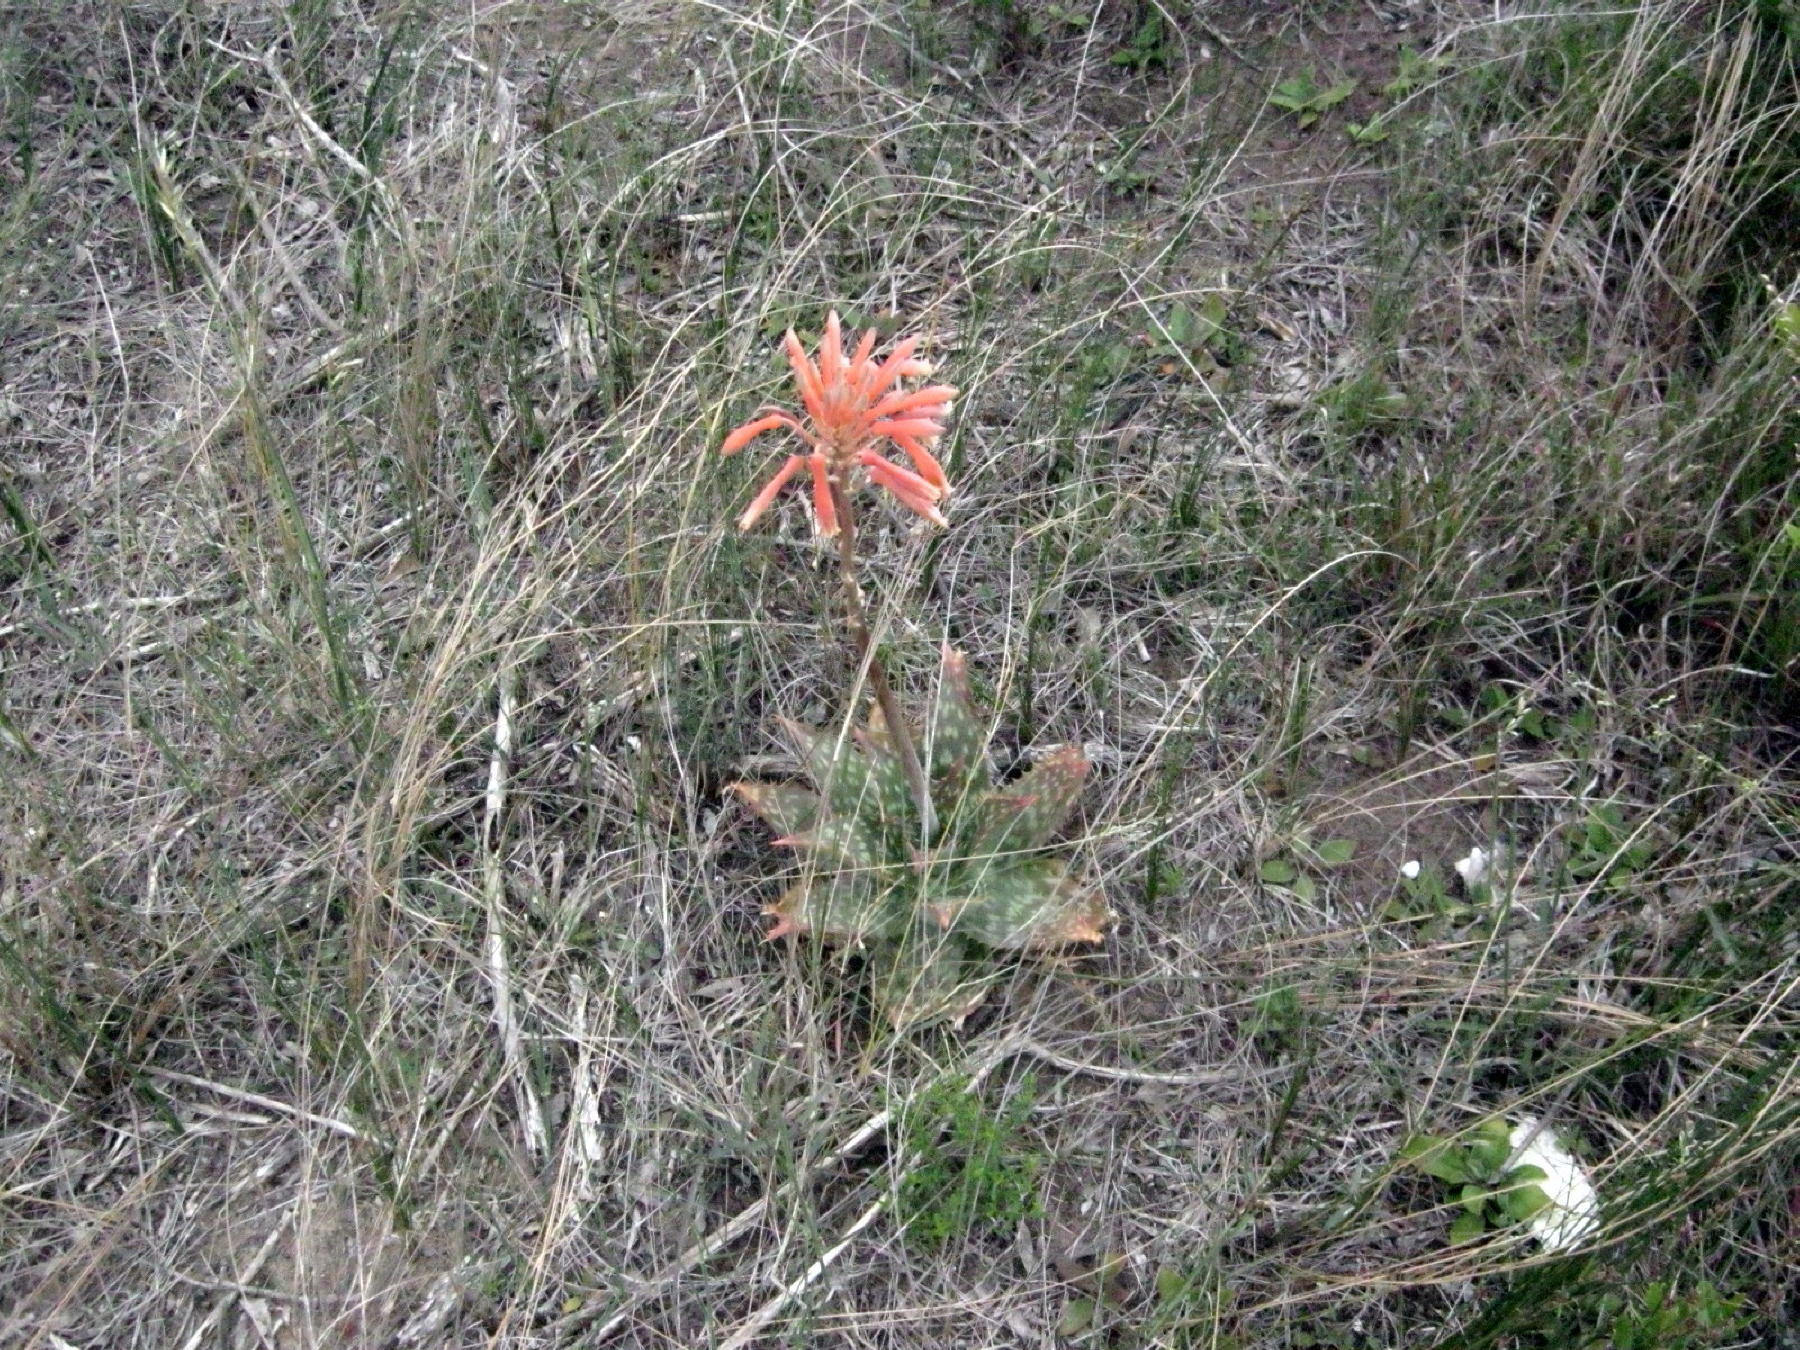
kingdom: Plantae
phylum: Tracheophyta
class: Liliopsida
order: Asparagales
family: Asphodelaceae
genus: Aloe
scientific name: Aloe maculata
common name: Broadleaf aloe
